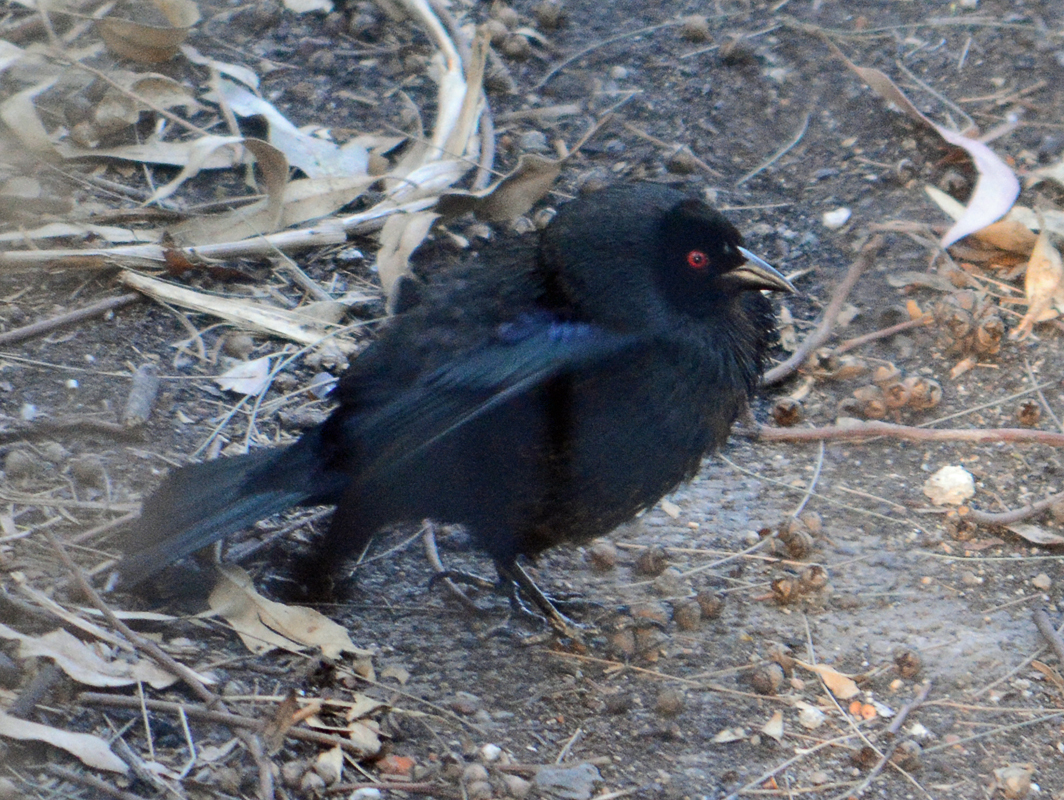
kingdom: Animalia
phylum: Chordata
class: Aves
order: Passeriformes
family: Icteridae
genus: Molothrus
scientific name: Molothrus aeneus
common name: Bronzed cowbird
